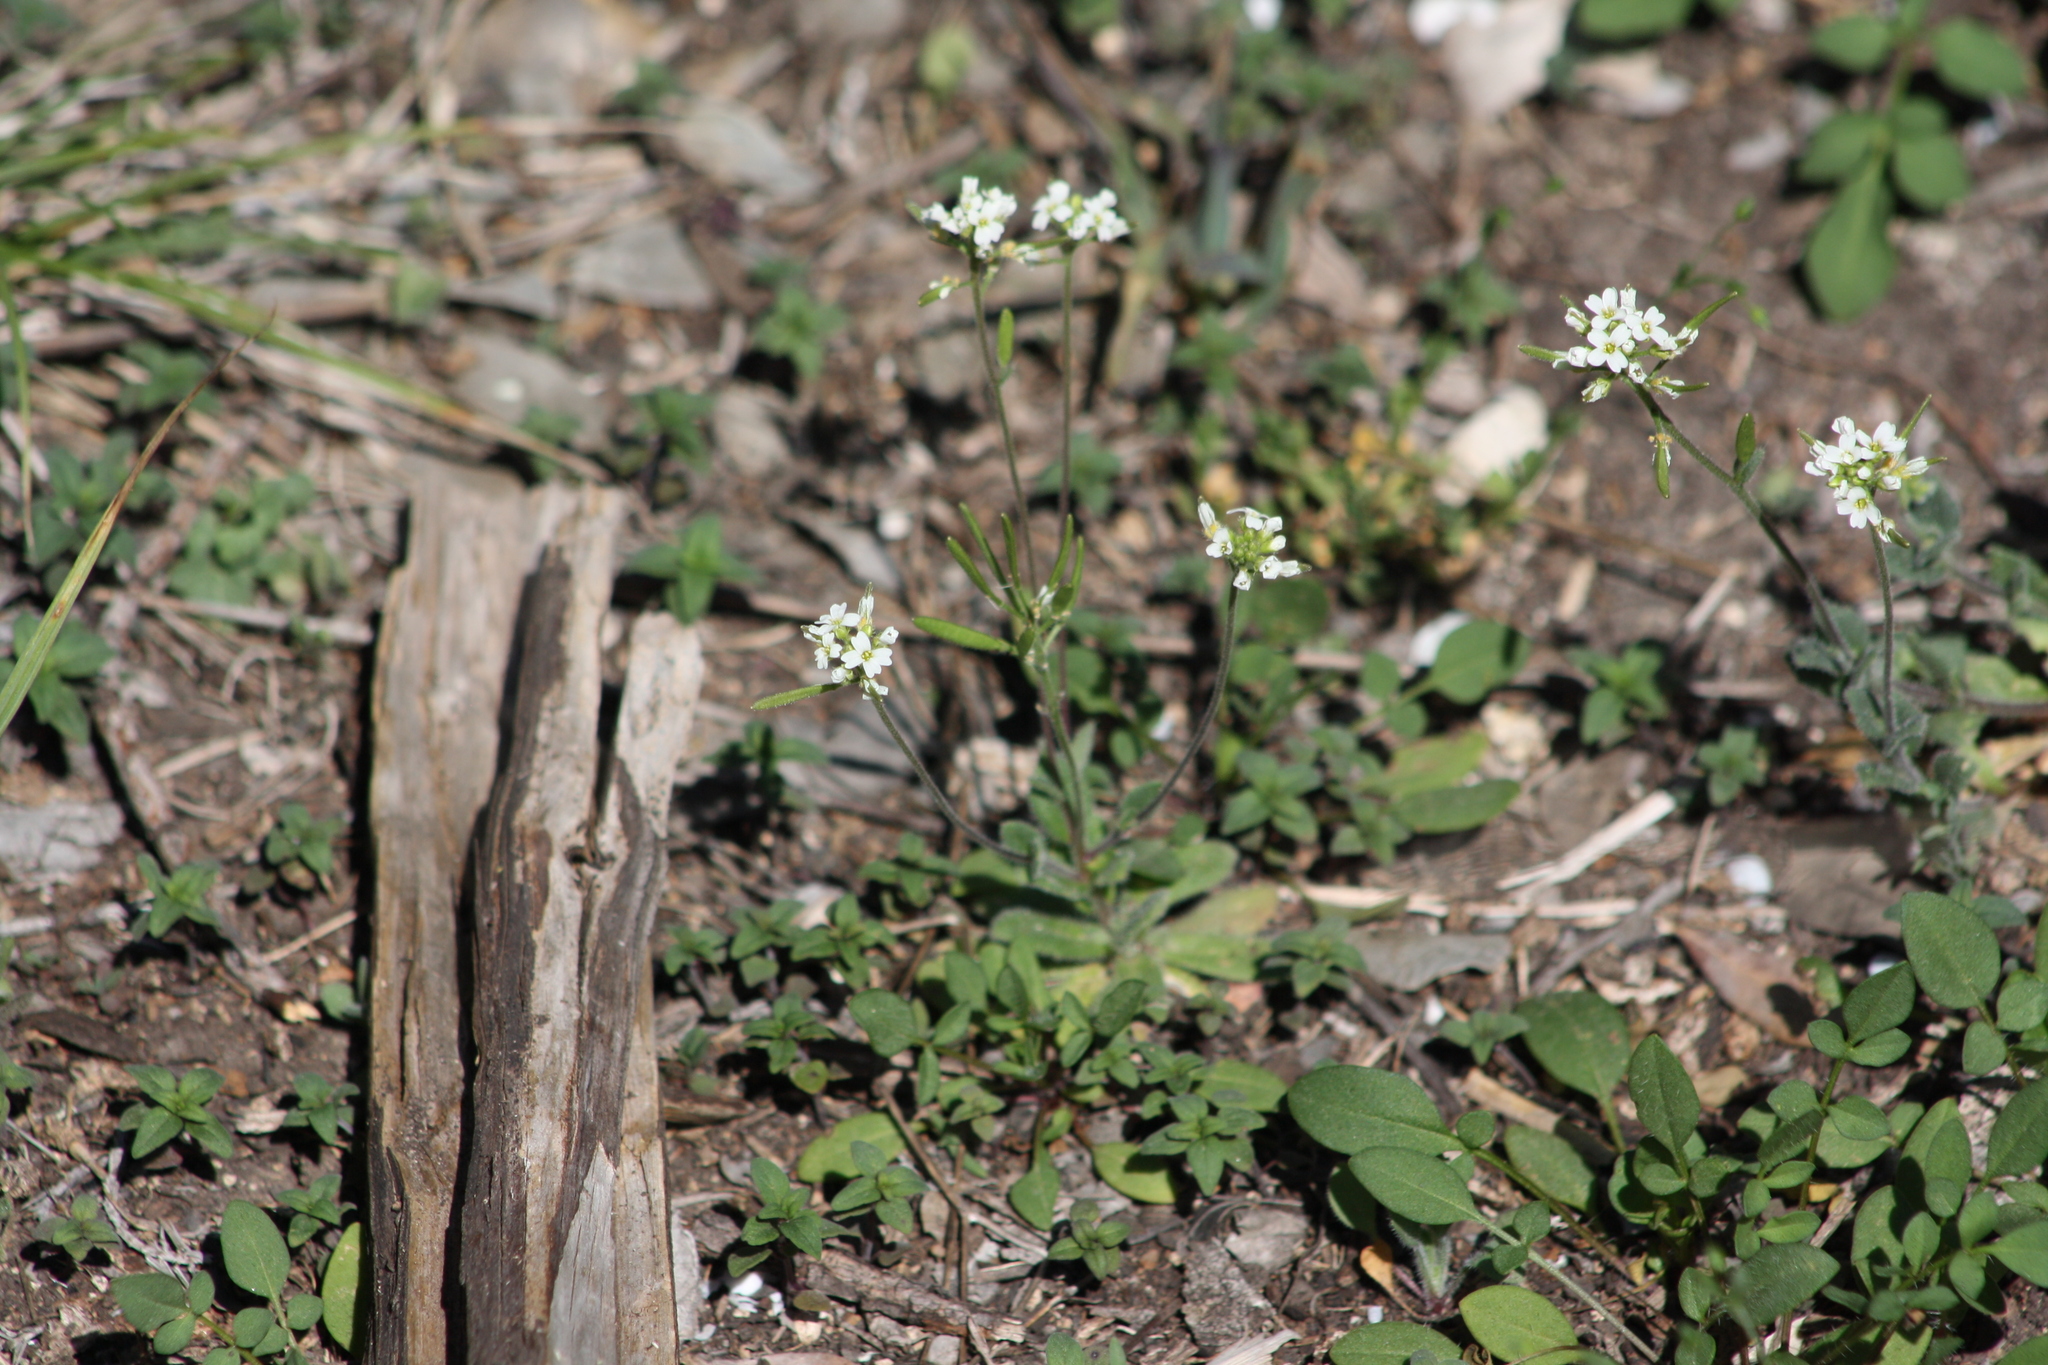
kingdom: Plantae
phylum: Tracheophyta
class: Magnoliopsida
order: Brassicales
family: Brassicaceae
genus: Tomostima
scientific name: Tomostima cuneifolia
